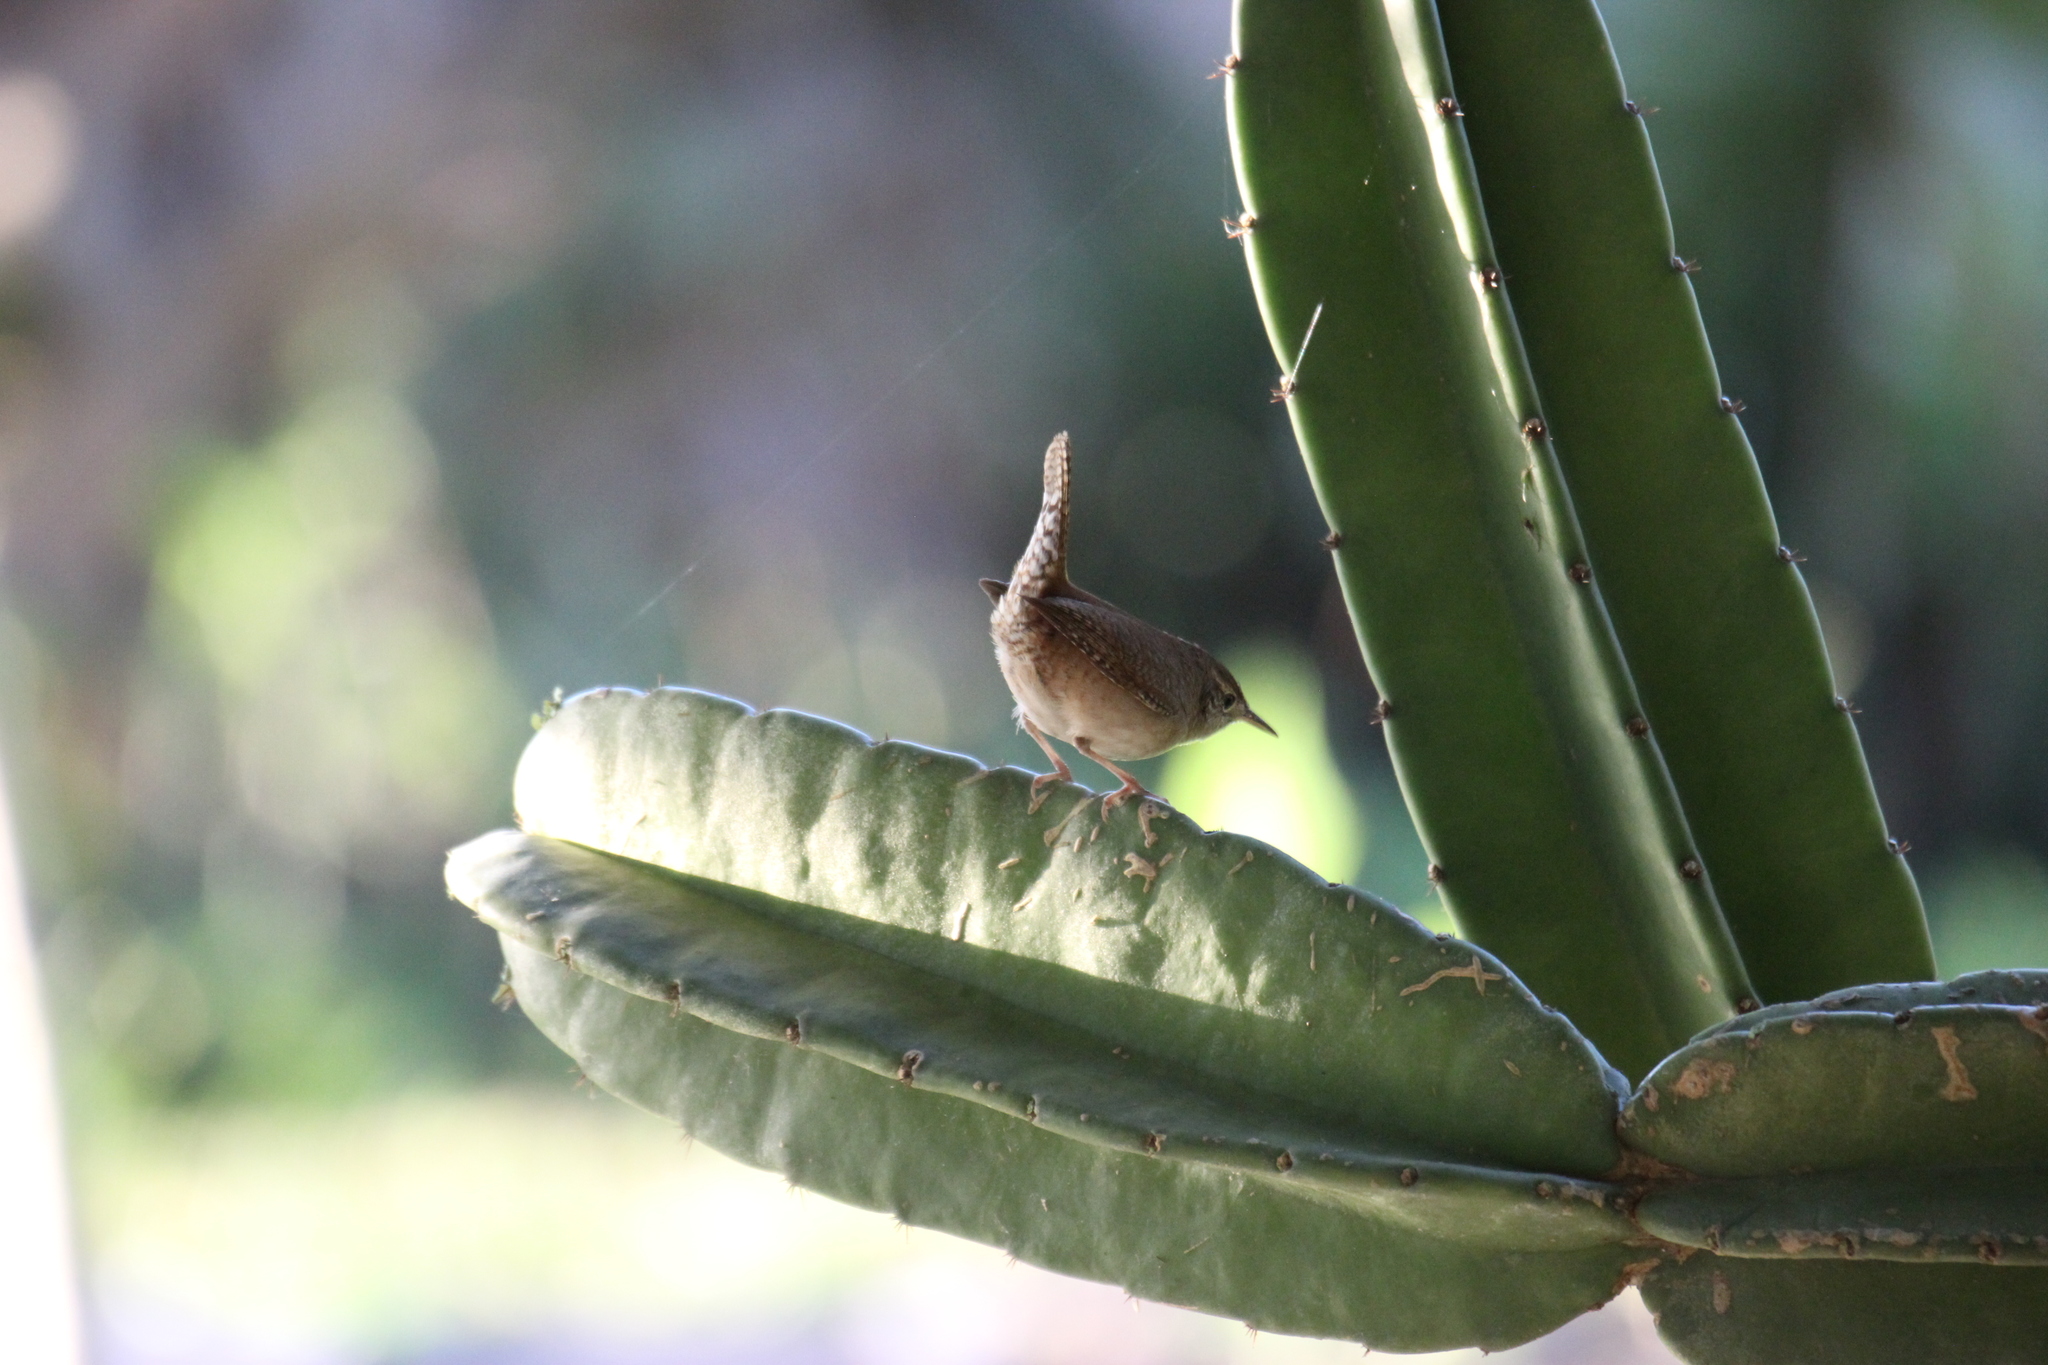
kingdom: Animalia
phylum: Chordata
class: Aves
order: Passeriformes
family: Troglodytidae
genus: Troglodytes
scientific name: Troglodytes aedon
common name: House wren
